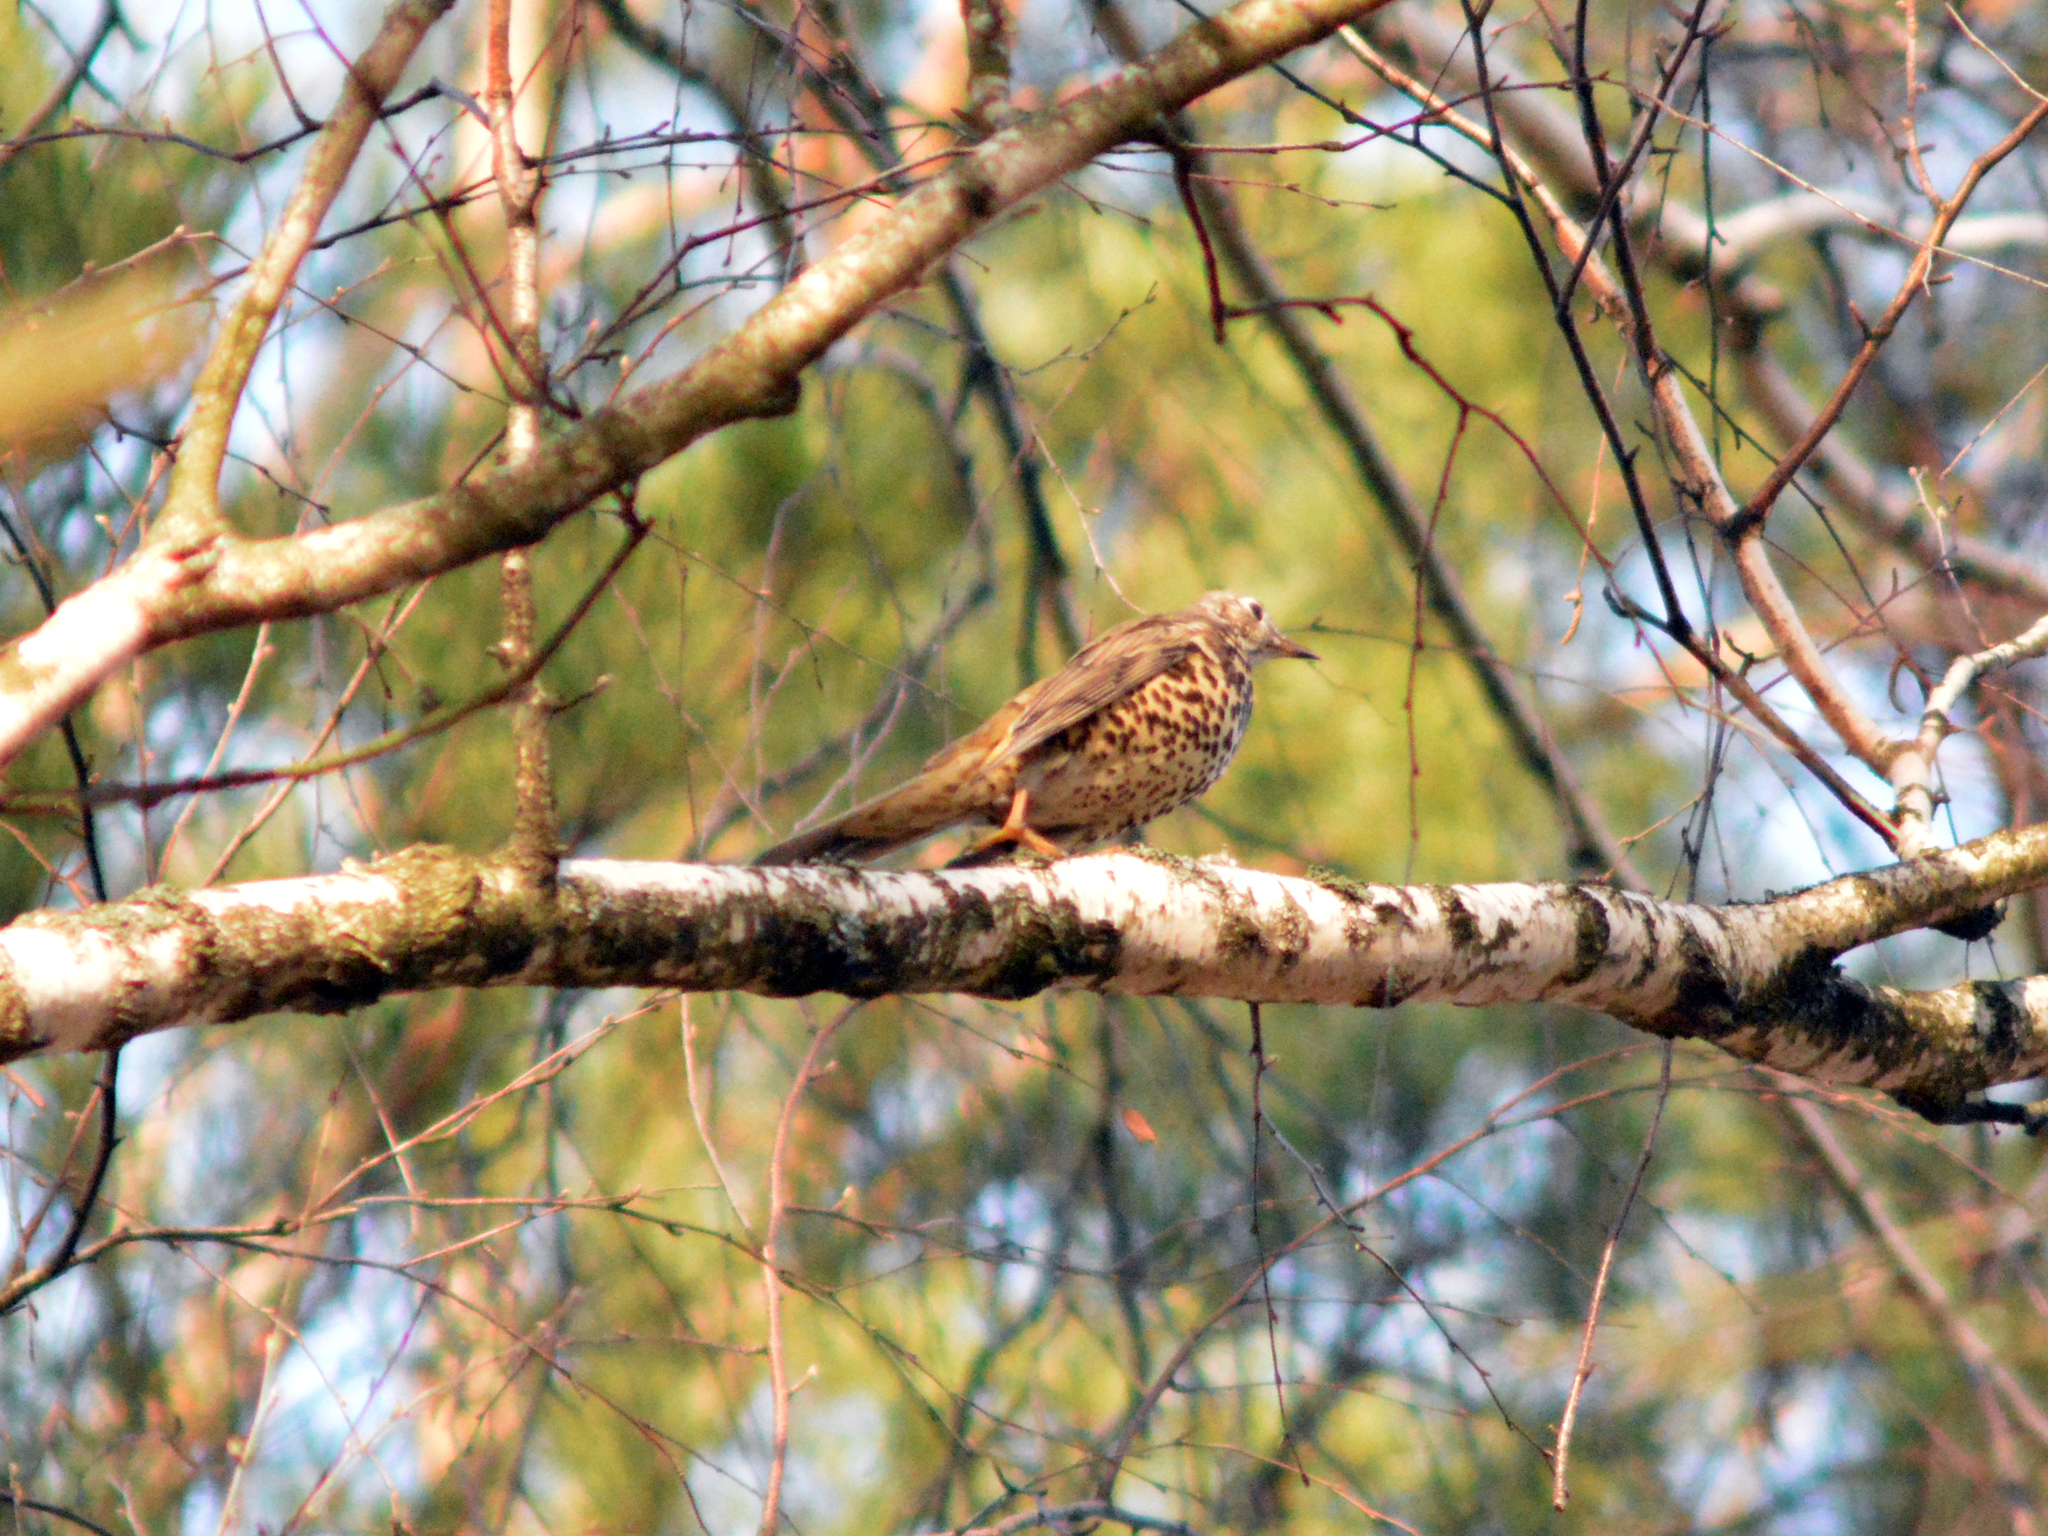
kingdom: Animalia
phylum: Chordata
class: Aves
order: Passeriformes
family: Turdidae
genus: Turdus
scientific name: Turdus viscivorus
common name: Mistle thrush
